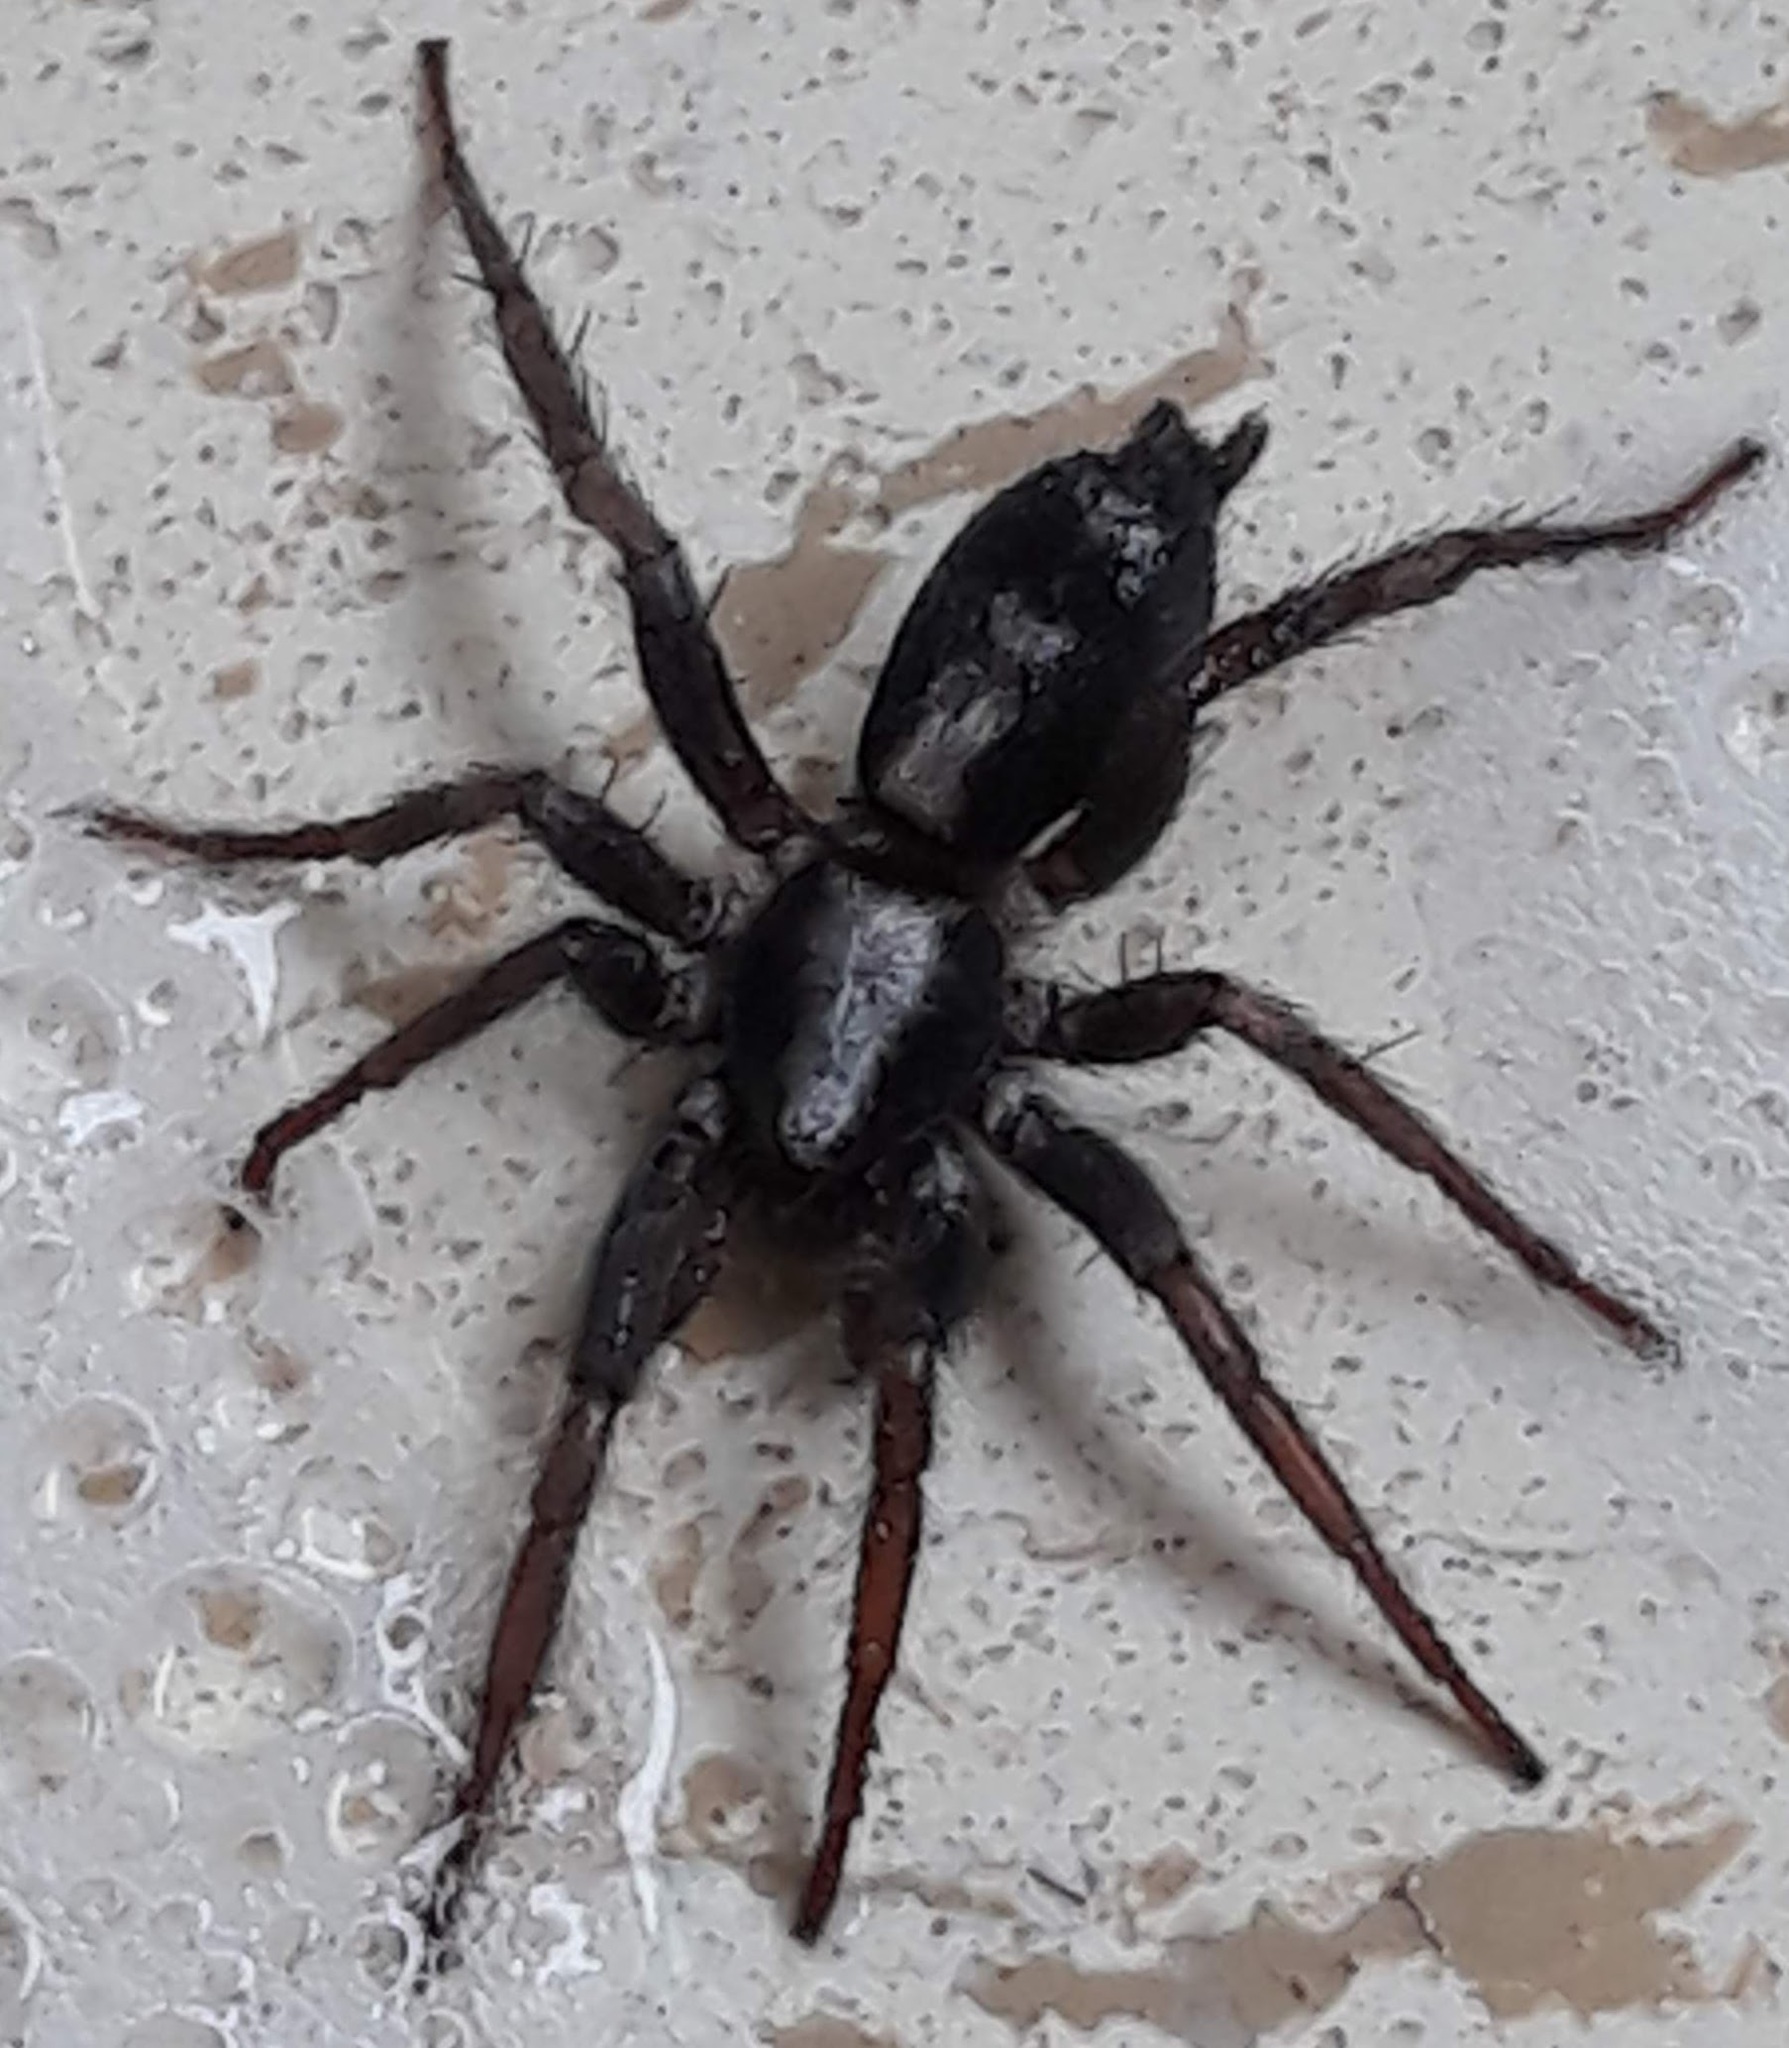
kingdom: Animalia
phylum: Arthropoda
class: Arachnida
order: Araneae
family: Gnaphosidae
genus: Herpyllus
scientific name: Herpyllus ecclesiasticus
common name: Eastern parson spider
